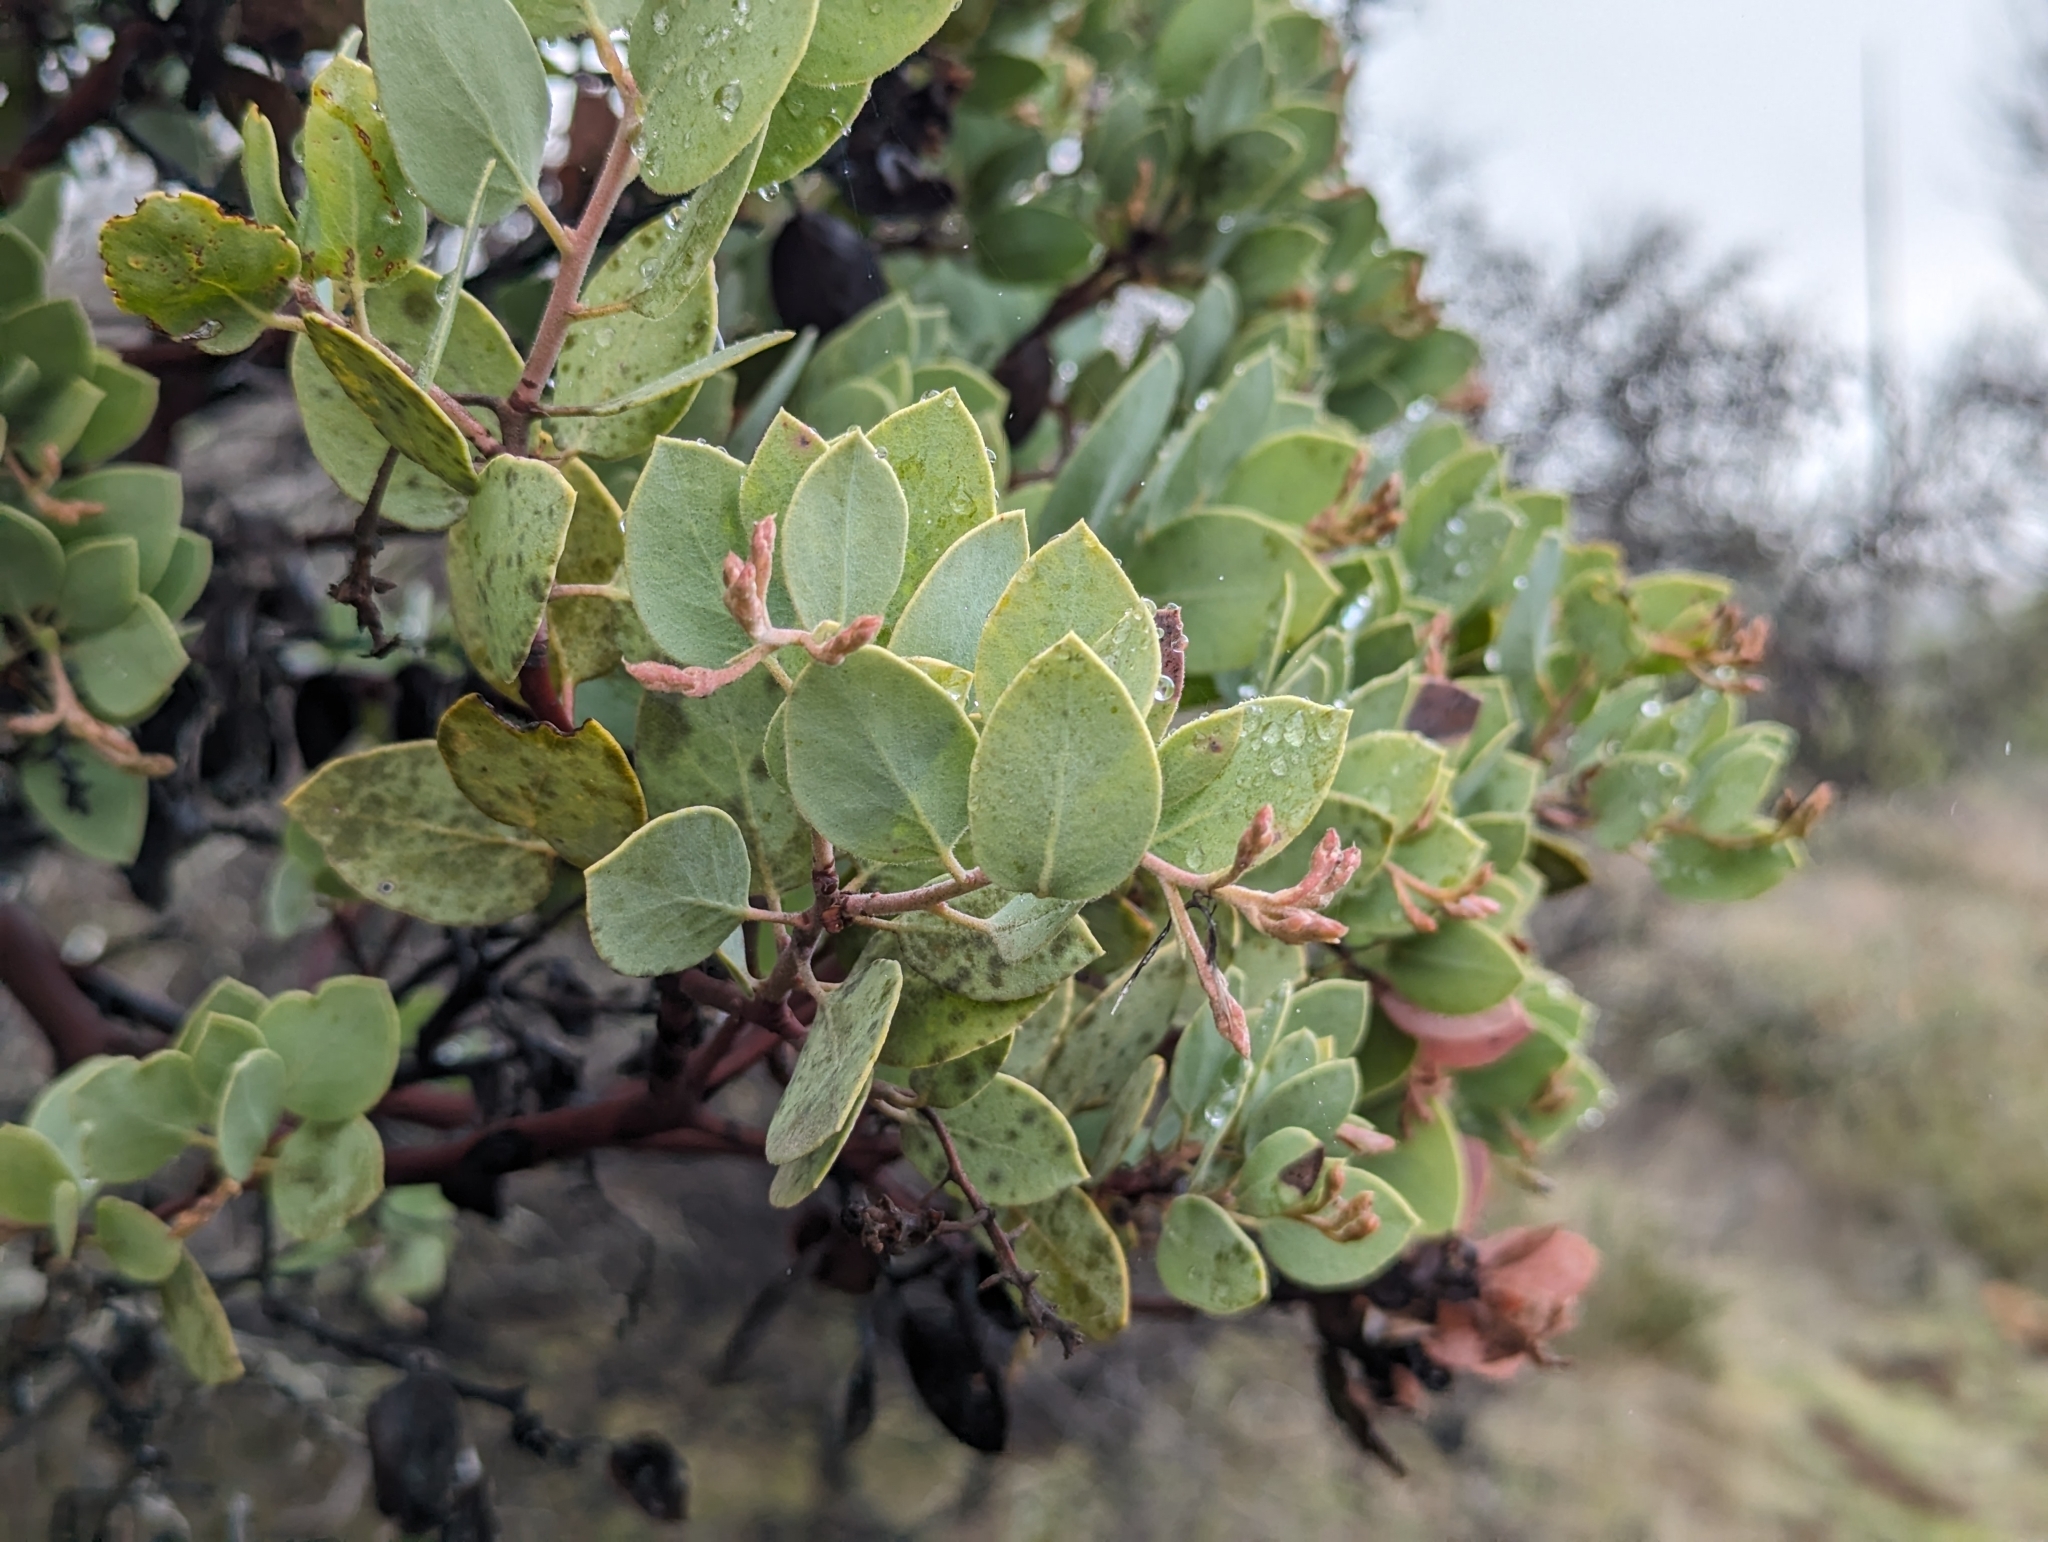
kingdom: Plantae
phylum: Tracheophyta
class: Magnoliopsida
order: Ericales
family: Ericaceae
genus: Arctostaphylos
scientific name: Arctostaphylos viscida
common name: White-leaf manzanita
